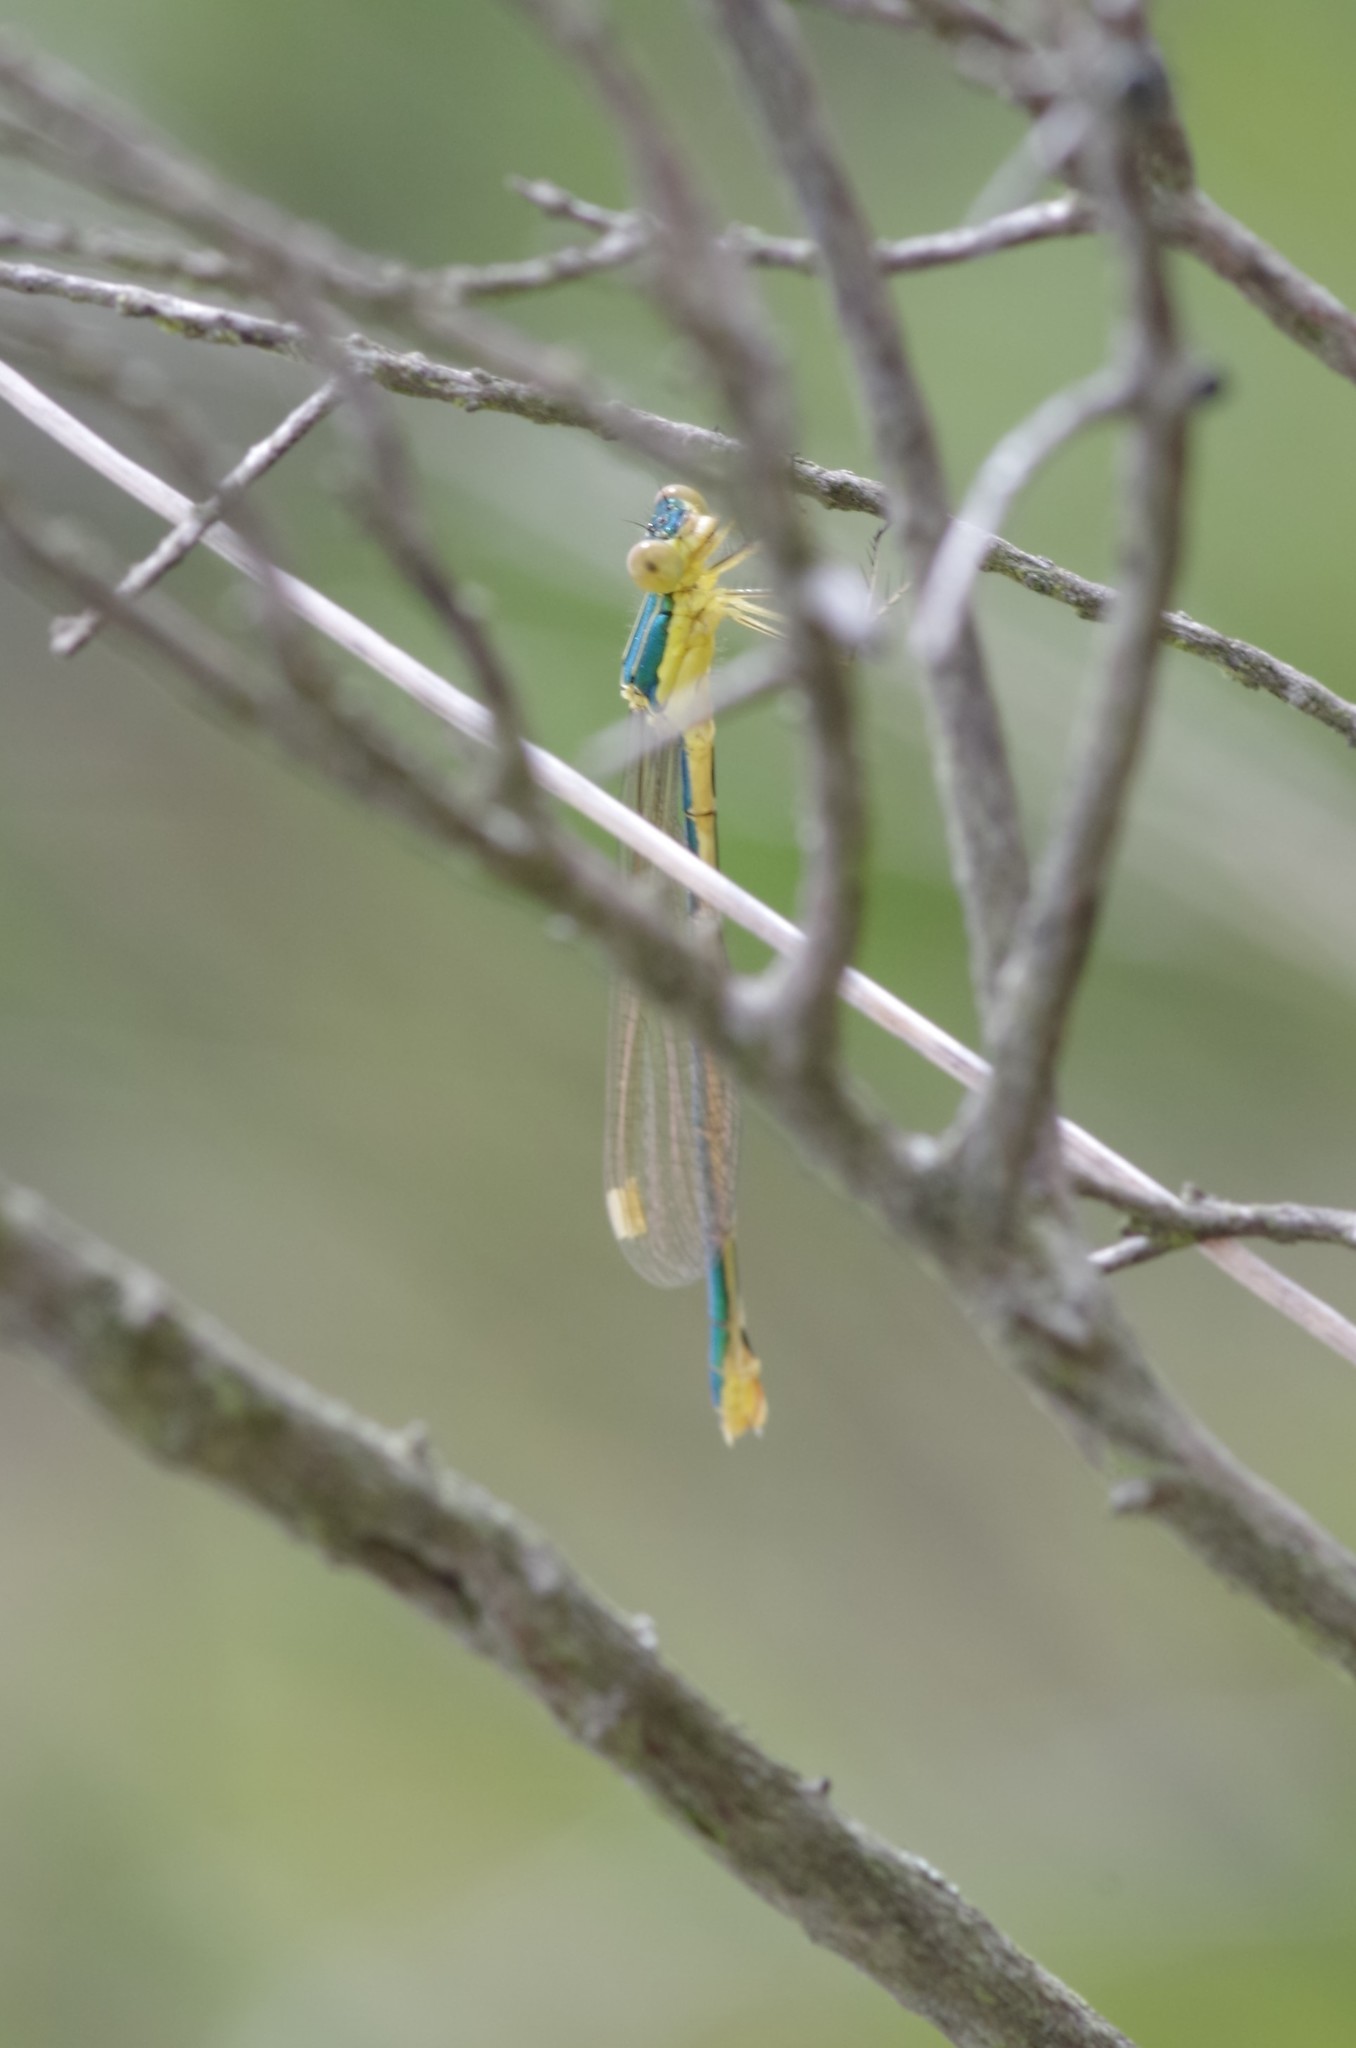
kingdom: Animalia
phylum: Arthropoda
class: Insecta
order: Odonata
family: Lestidae
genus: Lestes
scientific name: Lestes virens
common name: Small emerald spreadwing
